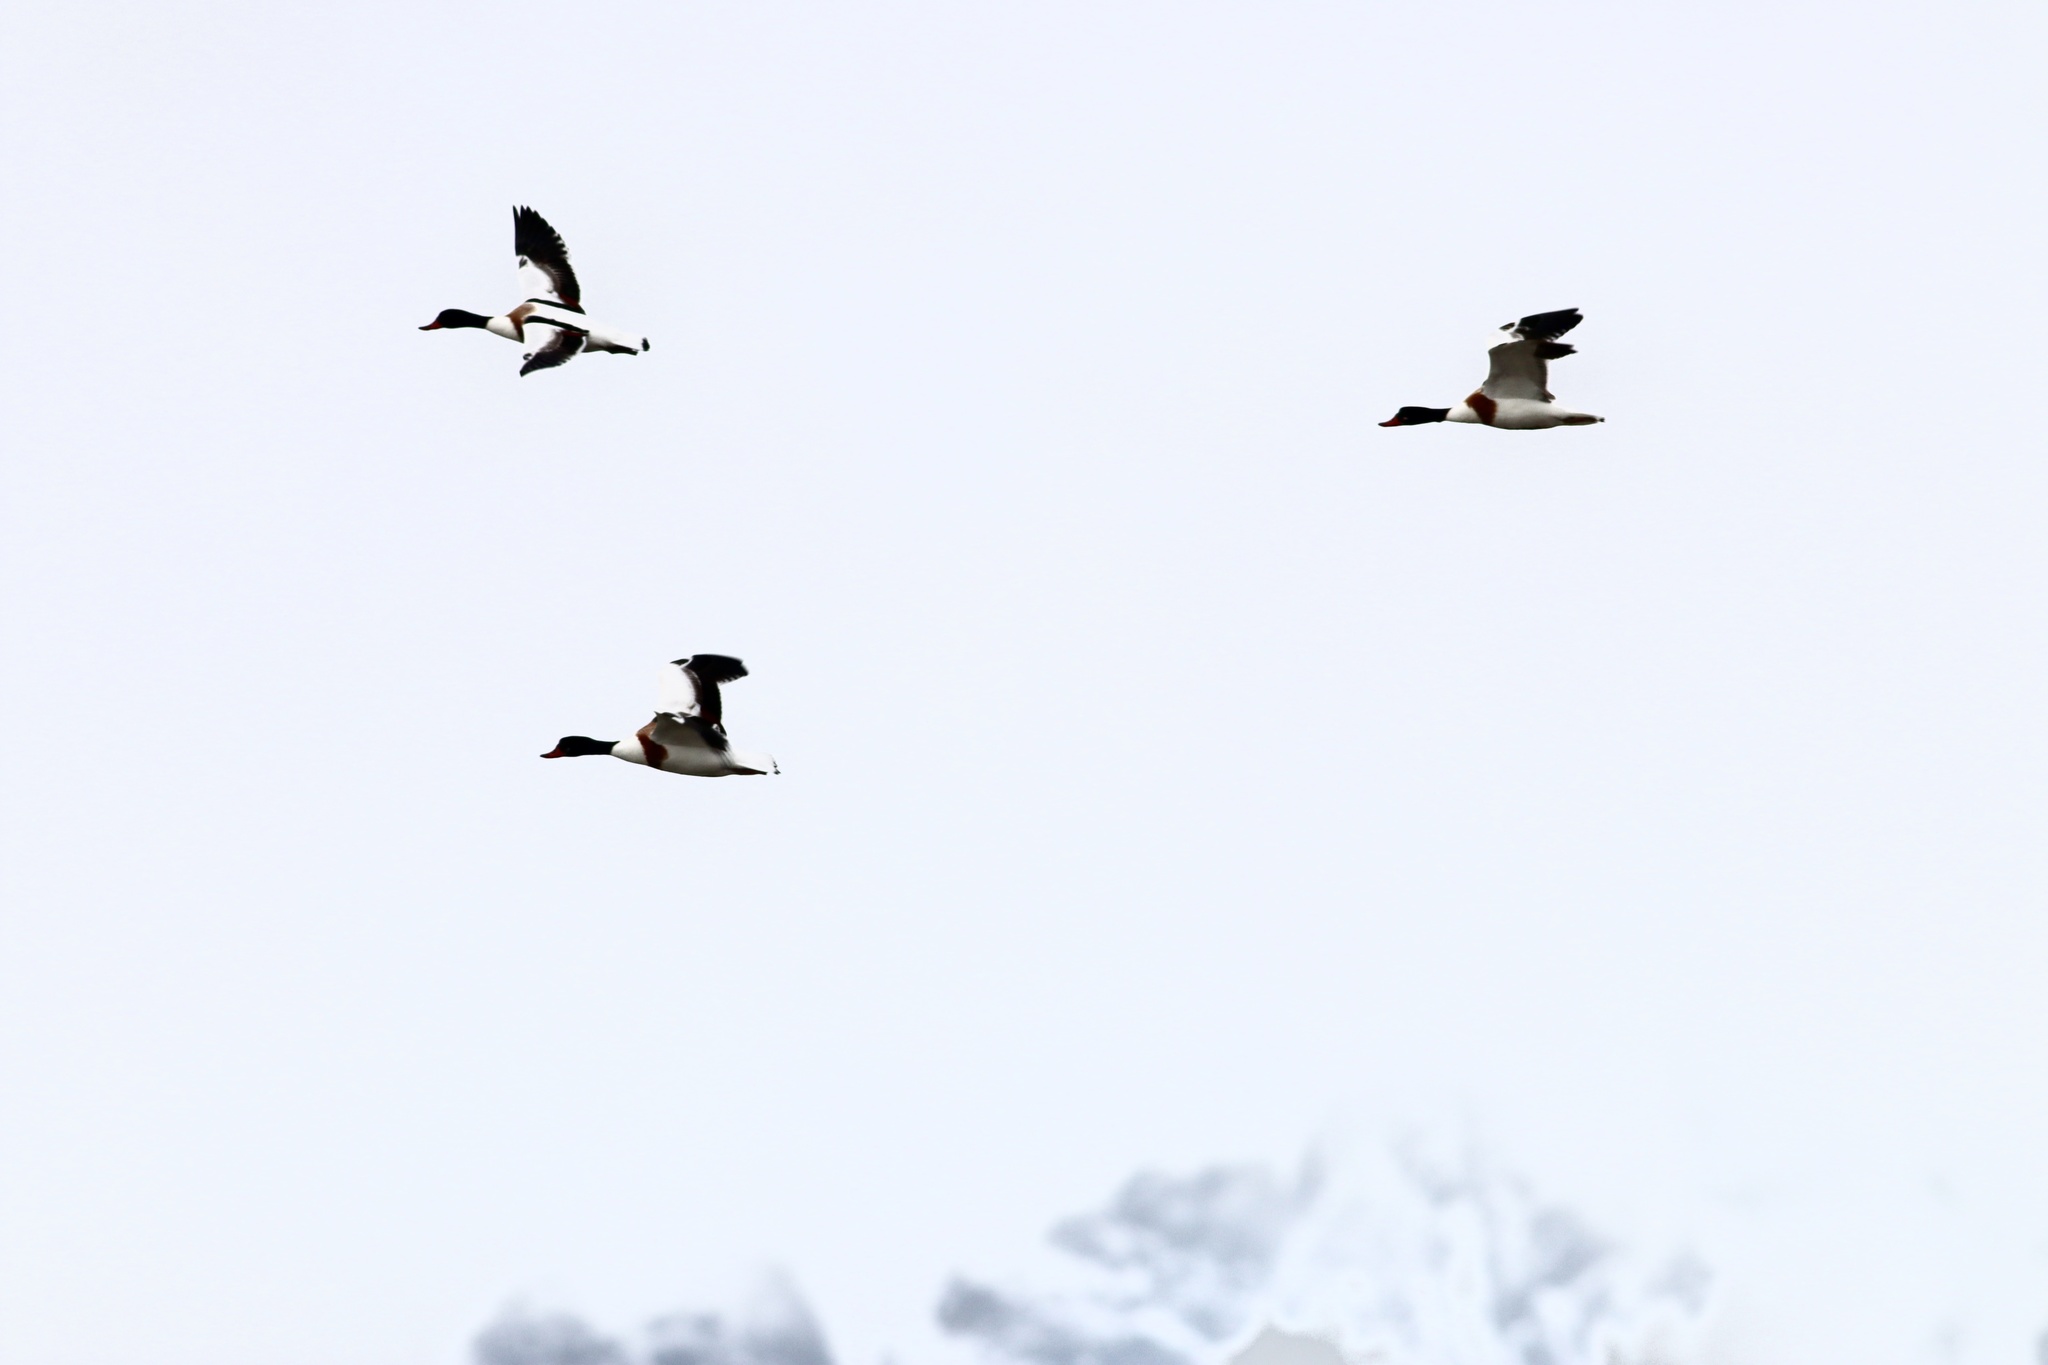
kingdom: Animalia
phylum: Chordata
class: Aves
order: Anseriformes
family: Anatidae
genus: Tadorna
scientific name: Tadorna tadorna
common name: Common shelduck
